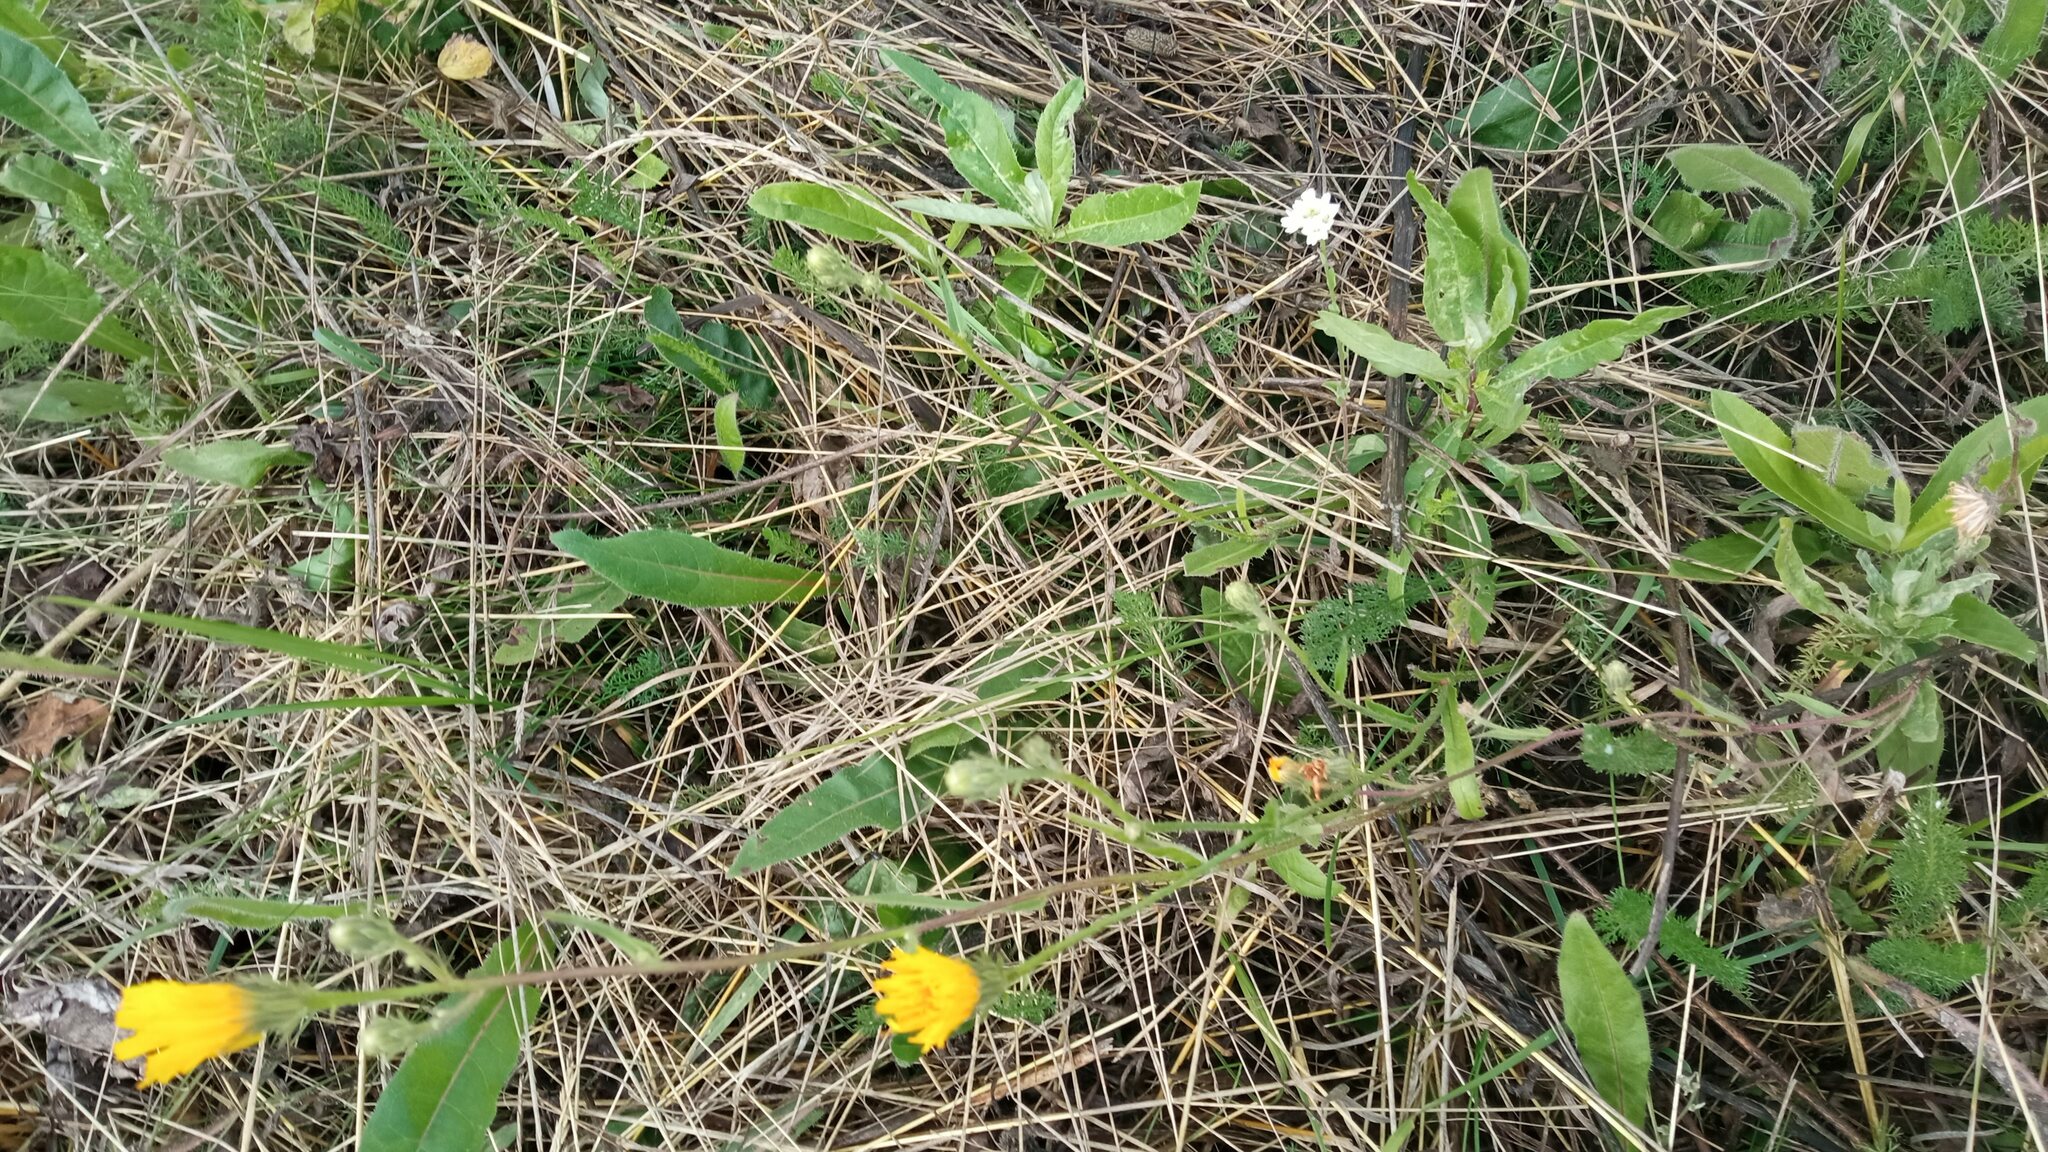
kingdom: Plantae
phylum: Tracheophyta
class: Magnoliopsida
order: Asterales
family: Asteraceae
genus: Picris
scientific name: Picris hieracioides
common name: Hawkweed oxtongue
